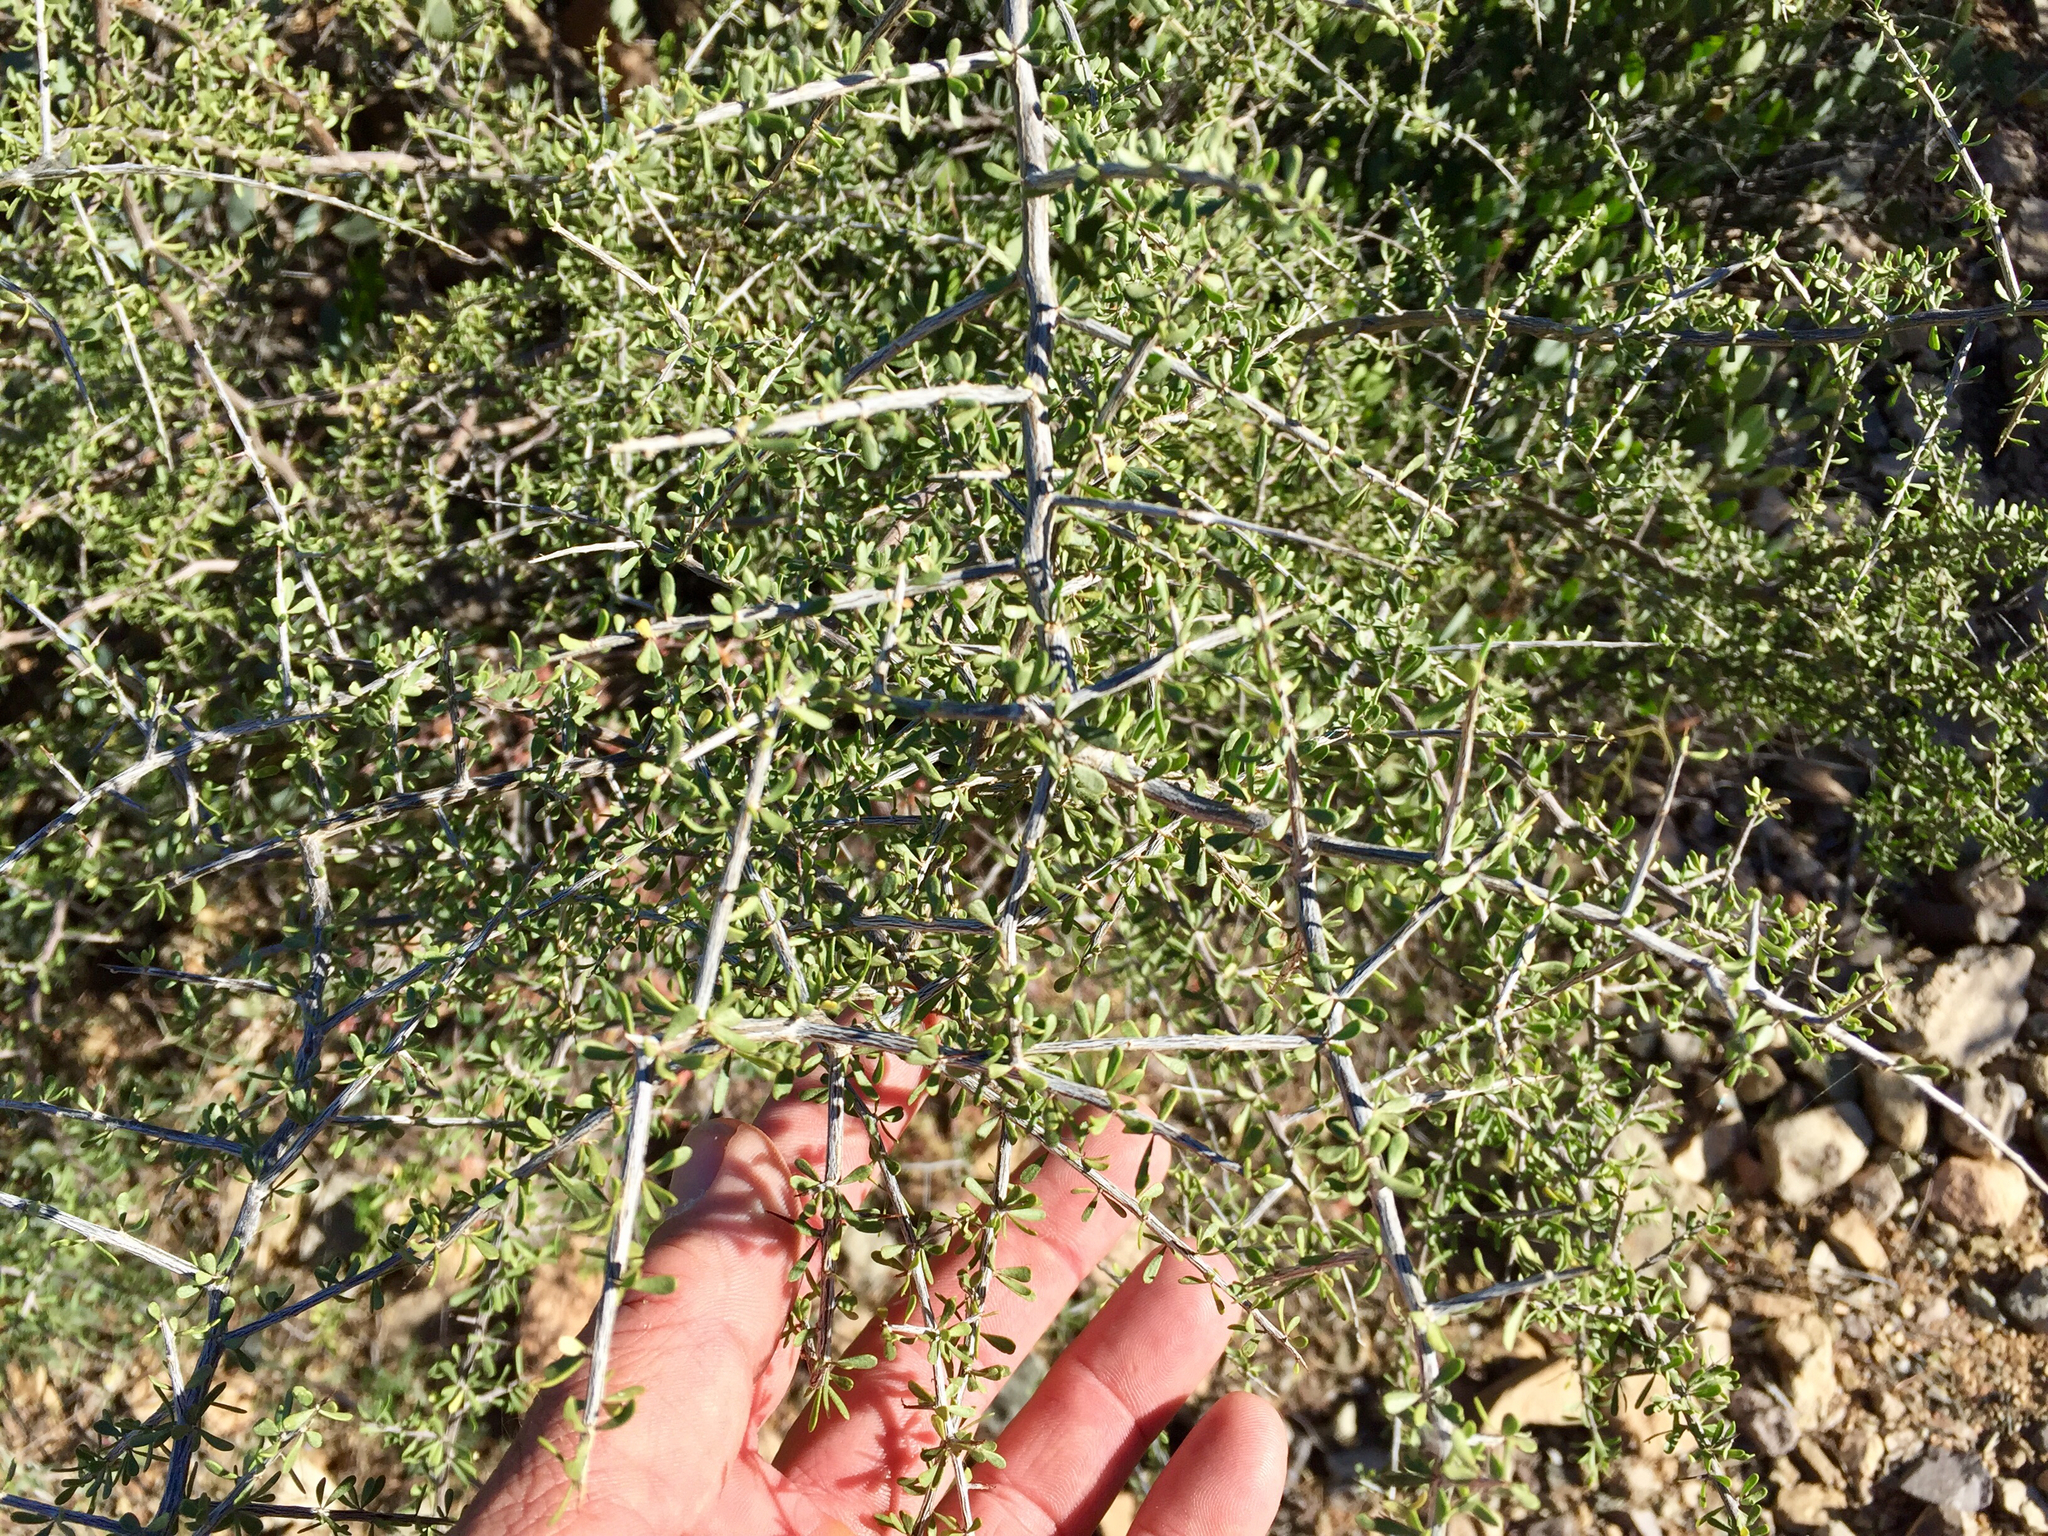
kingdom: Plantae
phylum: Tracheophyta
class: Magnoliopsida
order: Solanales
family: Solanaceae
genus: Lycium
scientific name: Lycium andersonii
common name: Water-jacket
